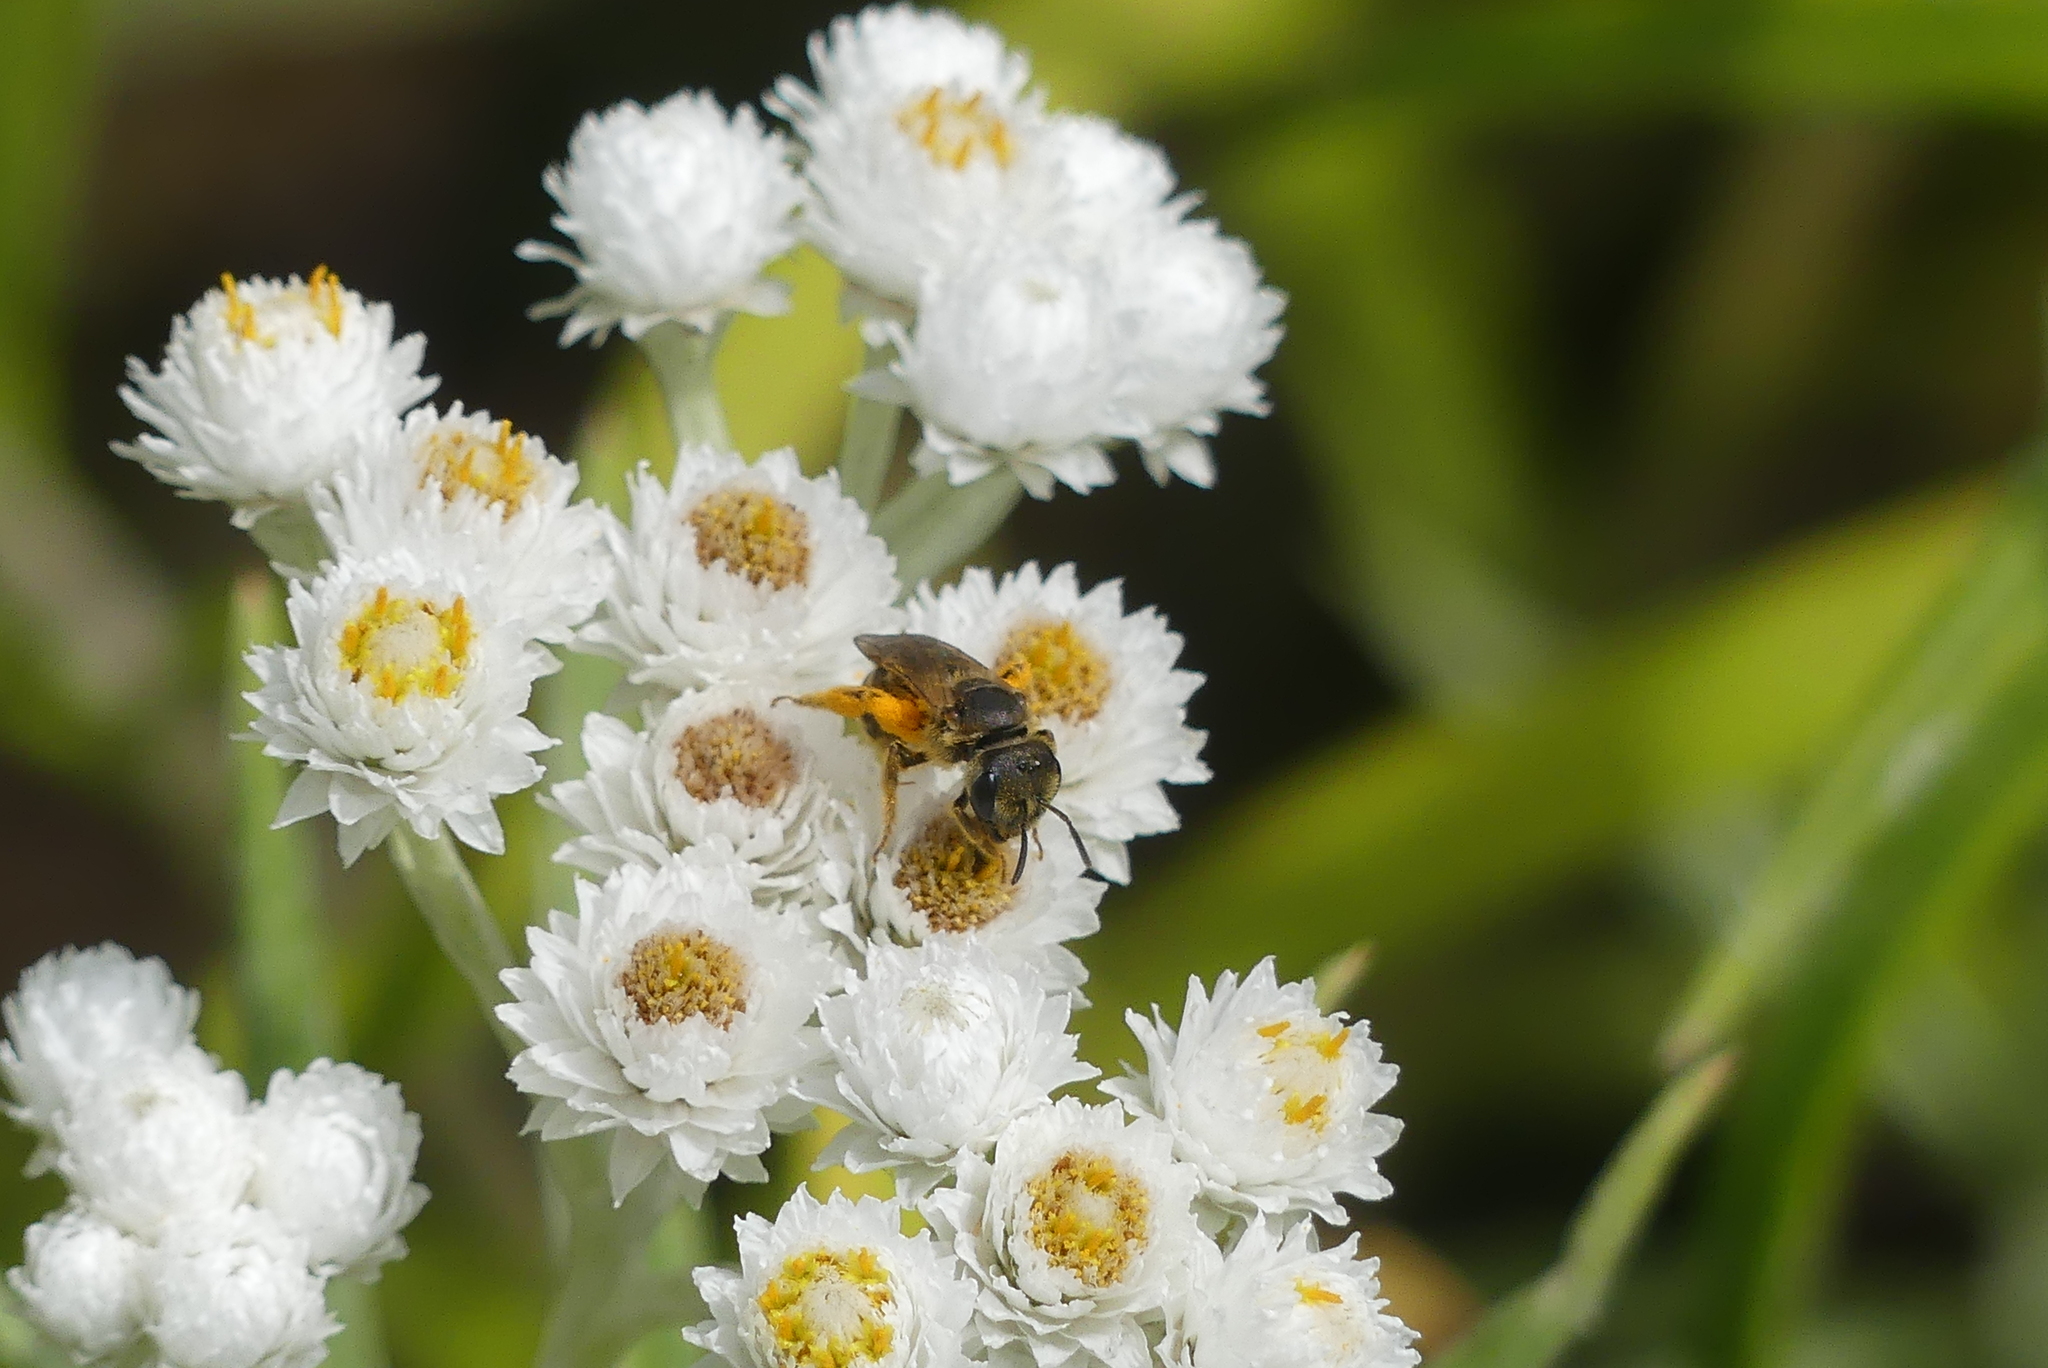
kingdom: Animalia
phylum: Arthropoda
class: Insecta
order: Hymenoptera
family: Halictidae
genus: Halictus
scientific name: Halictus ligatus
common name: Ligated furrow bee
